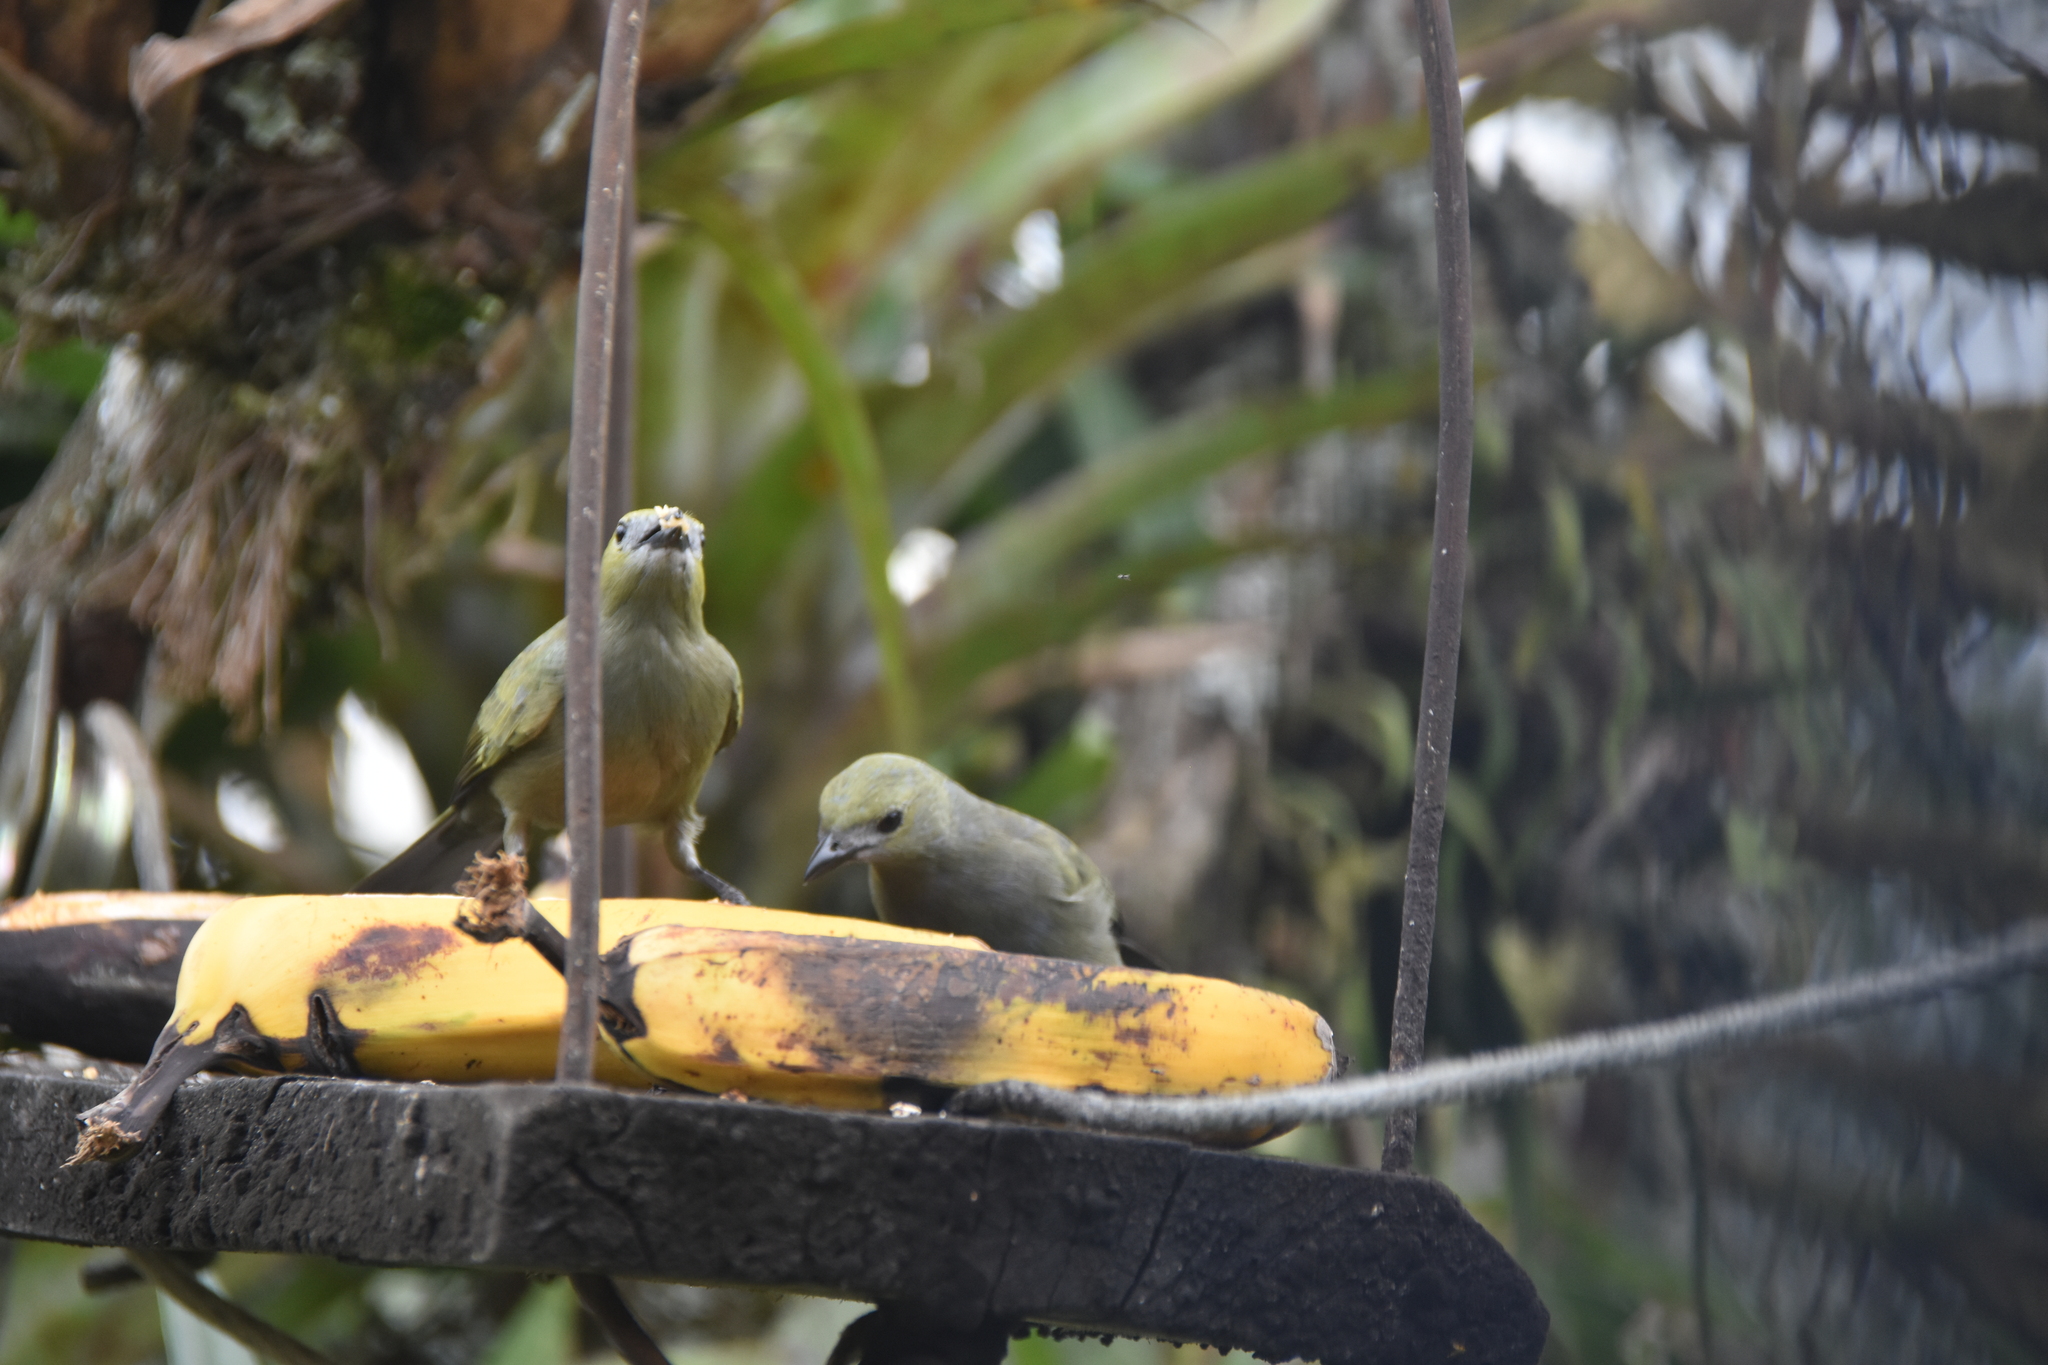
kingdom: Animalia
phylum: Chordata
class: Aves
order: Passeriformes
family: Thraupidae
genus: Thraupis
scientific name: Thraupis palmarum
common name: Palm tanager
